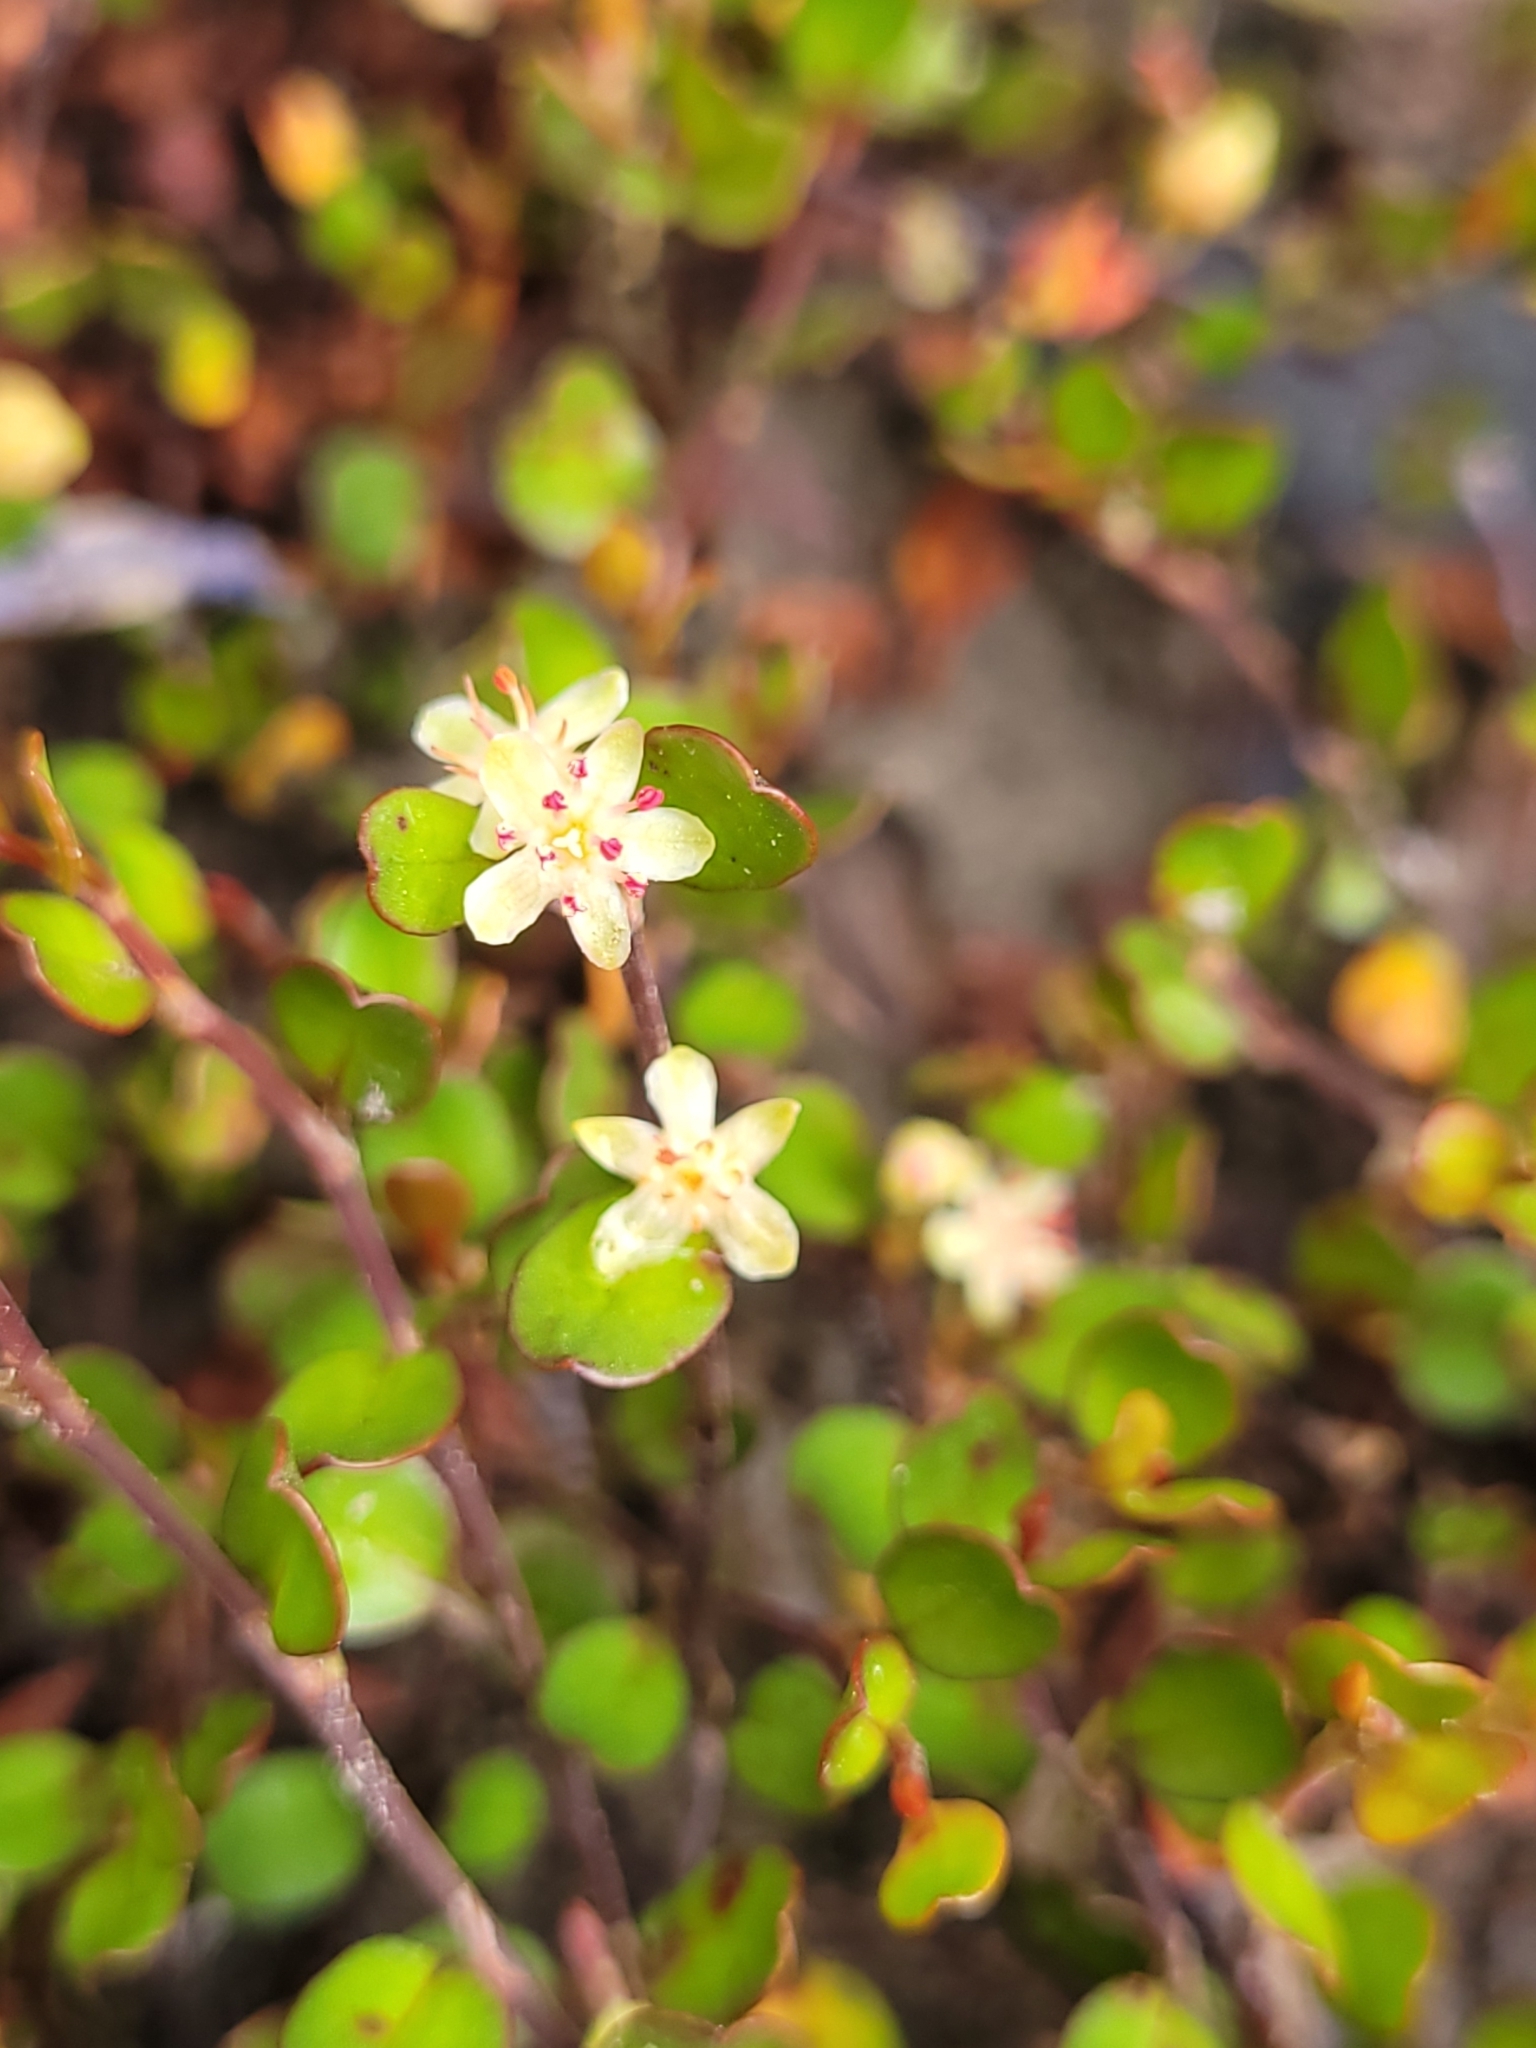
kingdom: Plantae
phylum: Tracheophyta
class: Magnoliopsida
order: Caryophyllales
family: Polygonaceae
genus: Muehlenbeckia
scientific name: Muehlenbeckia axillaris
